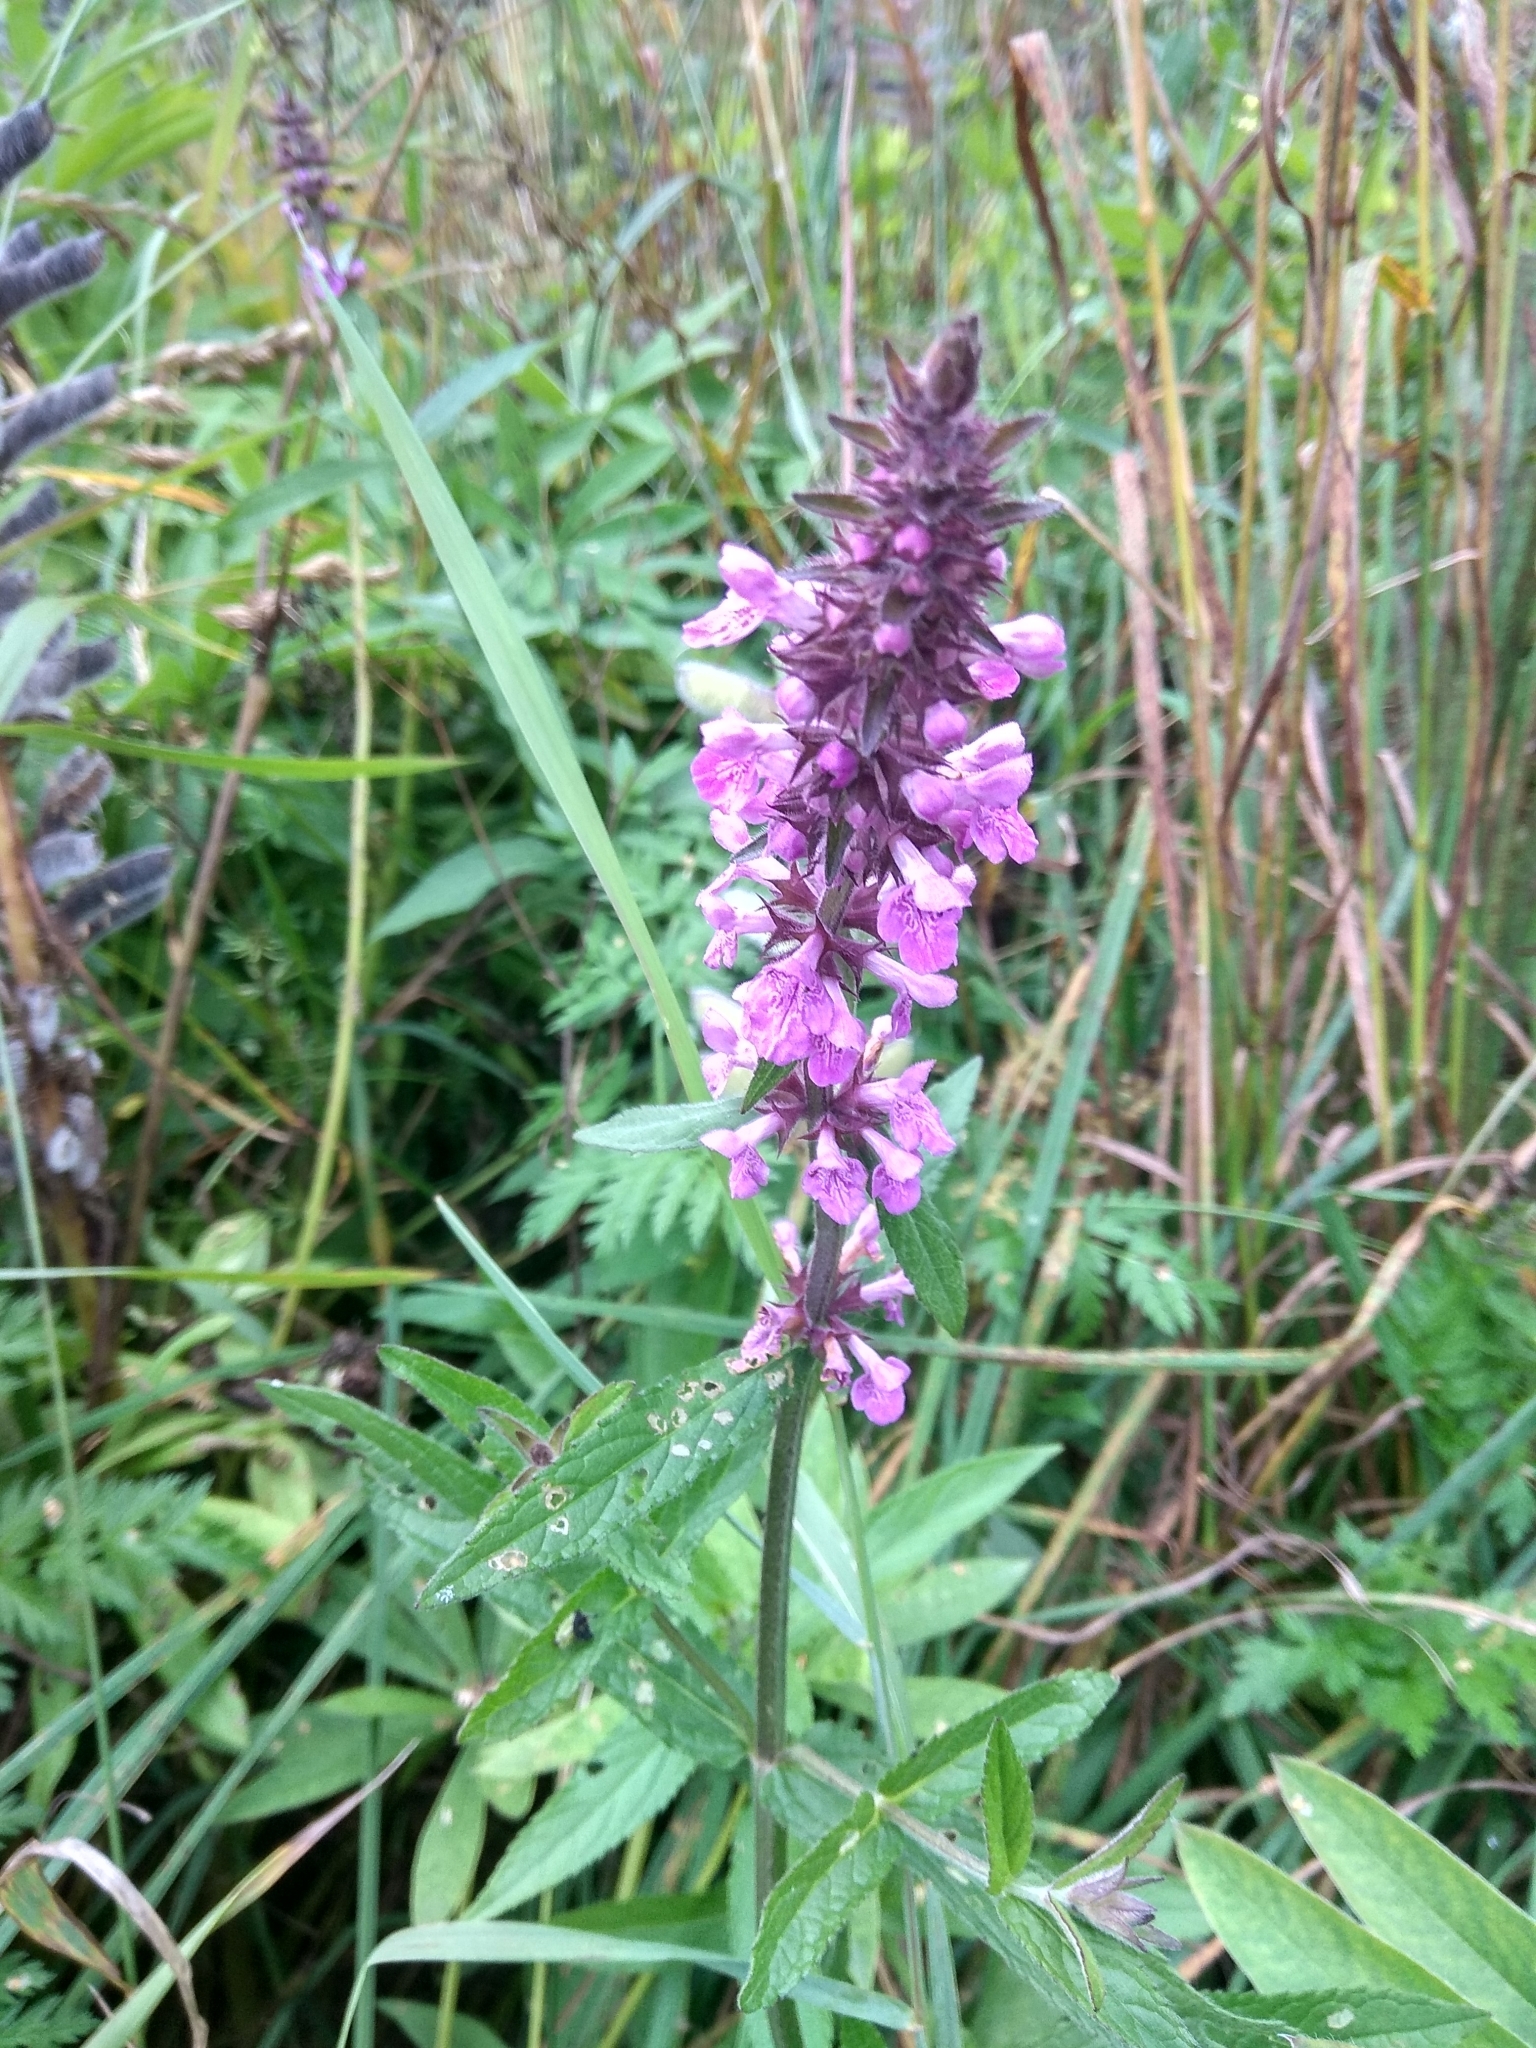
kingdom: Plantae
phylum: Tracheophyta
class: Magnoliopsida
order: Lamiales
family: Lamiaceae
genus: Stachys
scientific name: Stachys palustris
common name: Marsh woundwort
